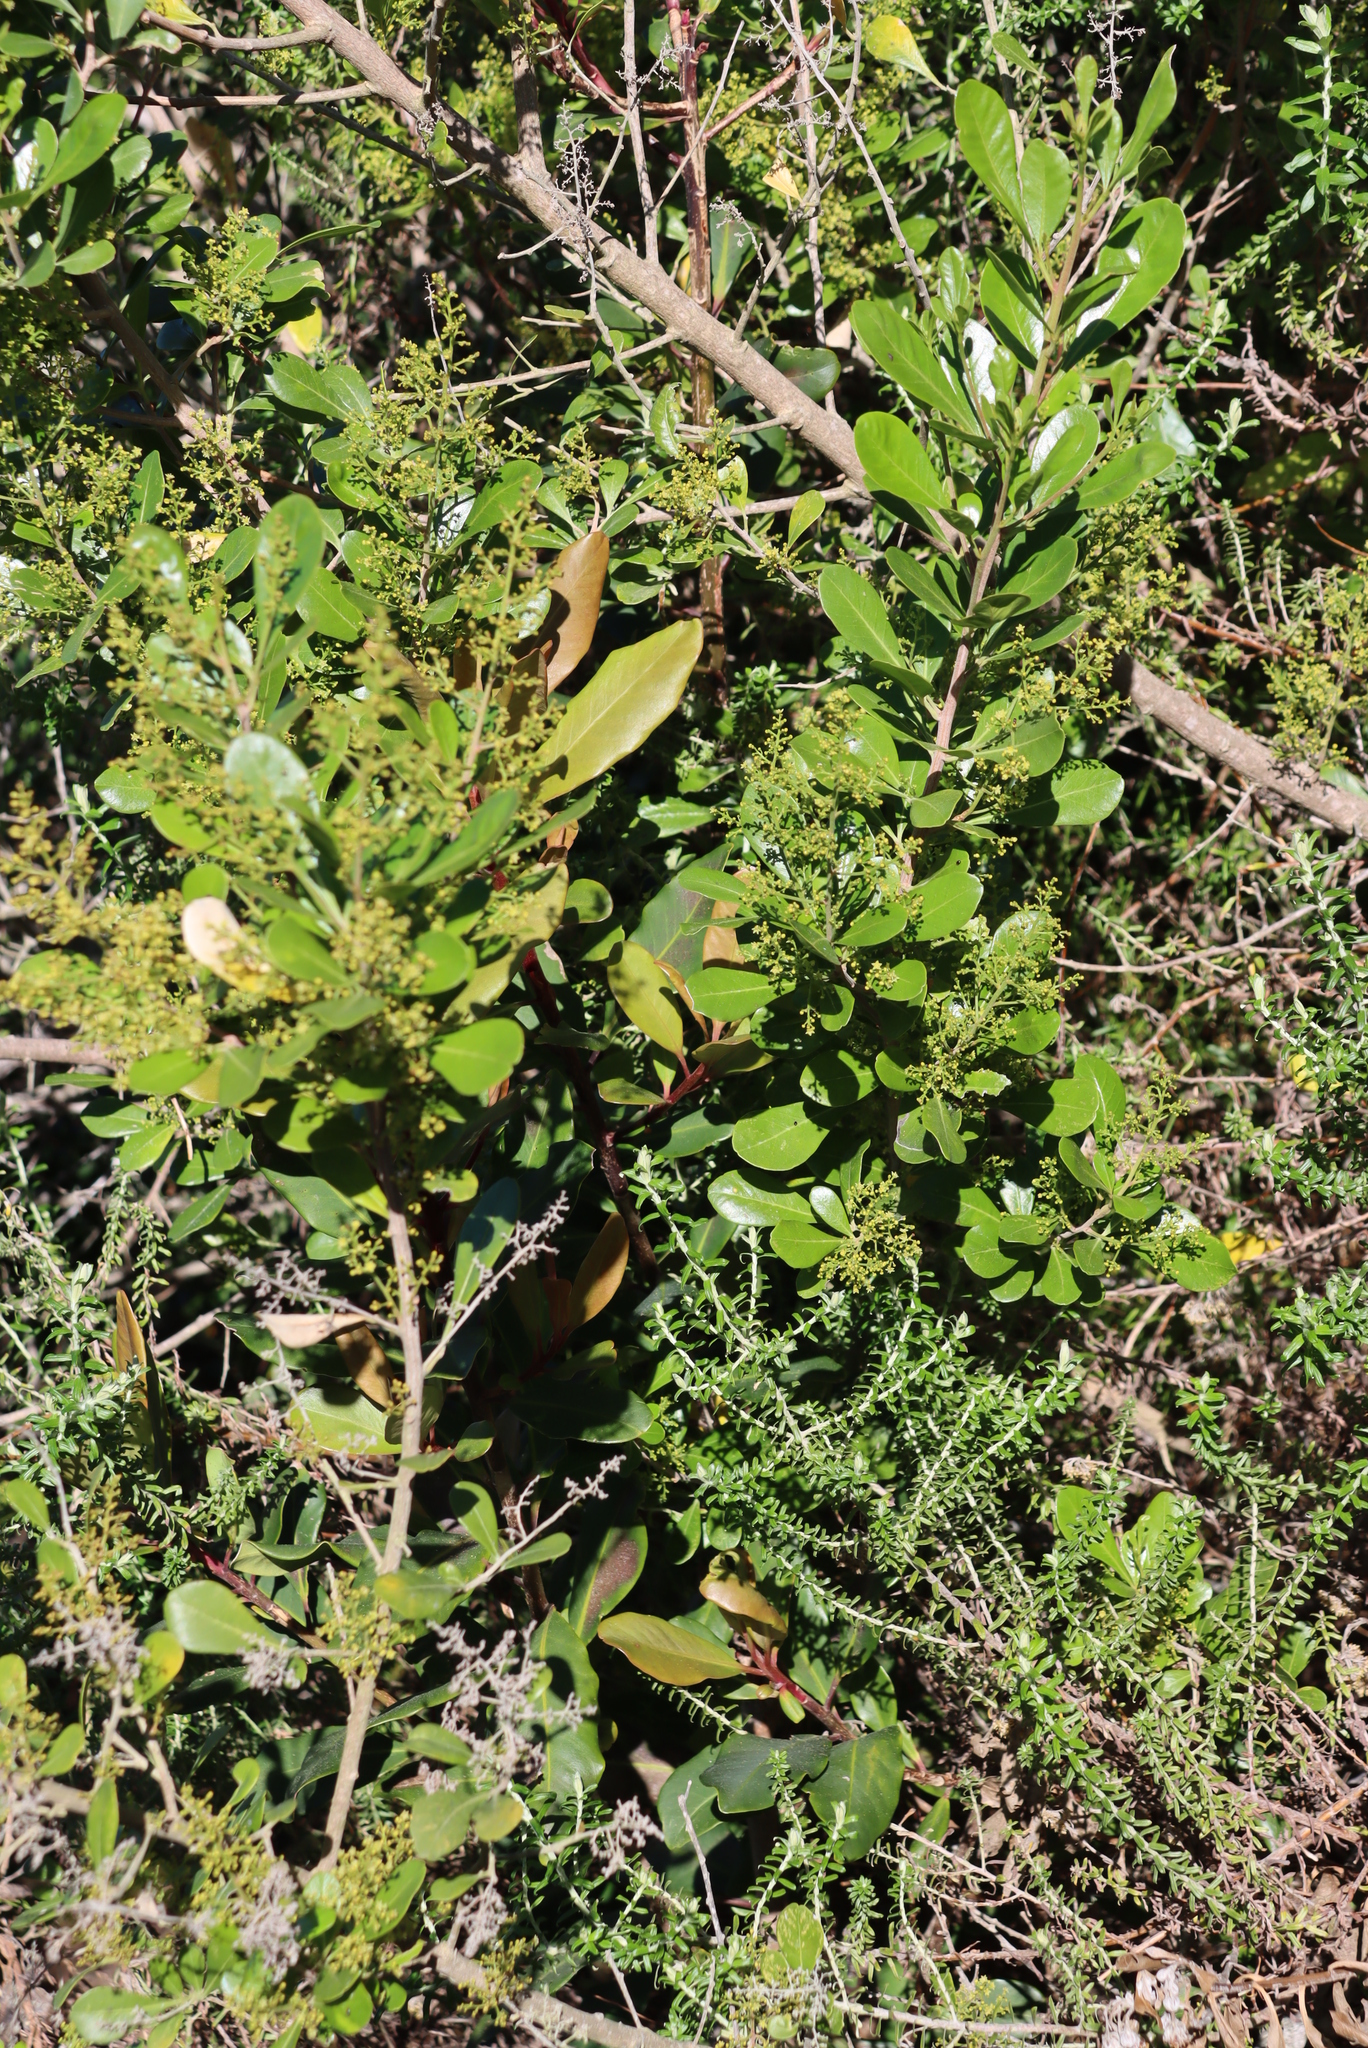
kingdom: Plantae
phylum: Tracheophyta
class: Magnoliopsida
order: Sapindales
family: Anacardiaceae
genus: Searsia
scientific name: Searsia lucida
